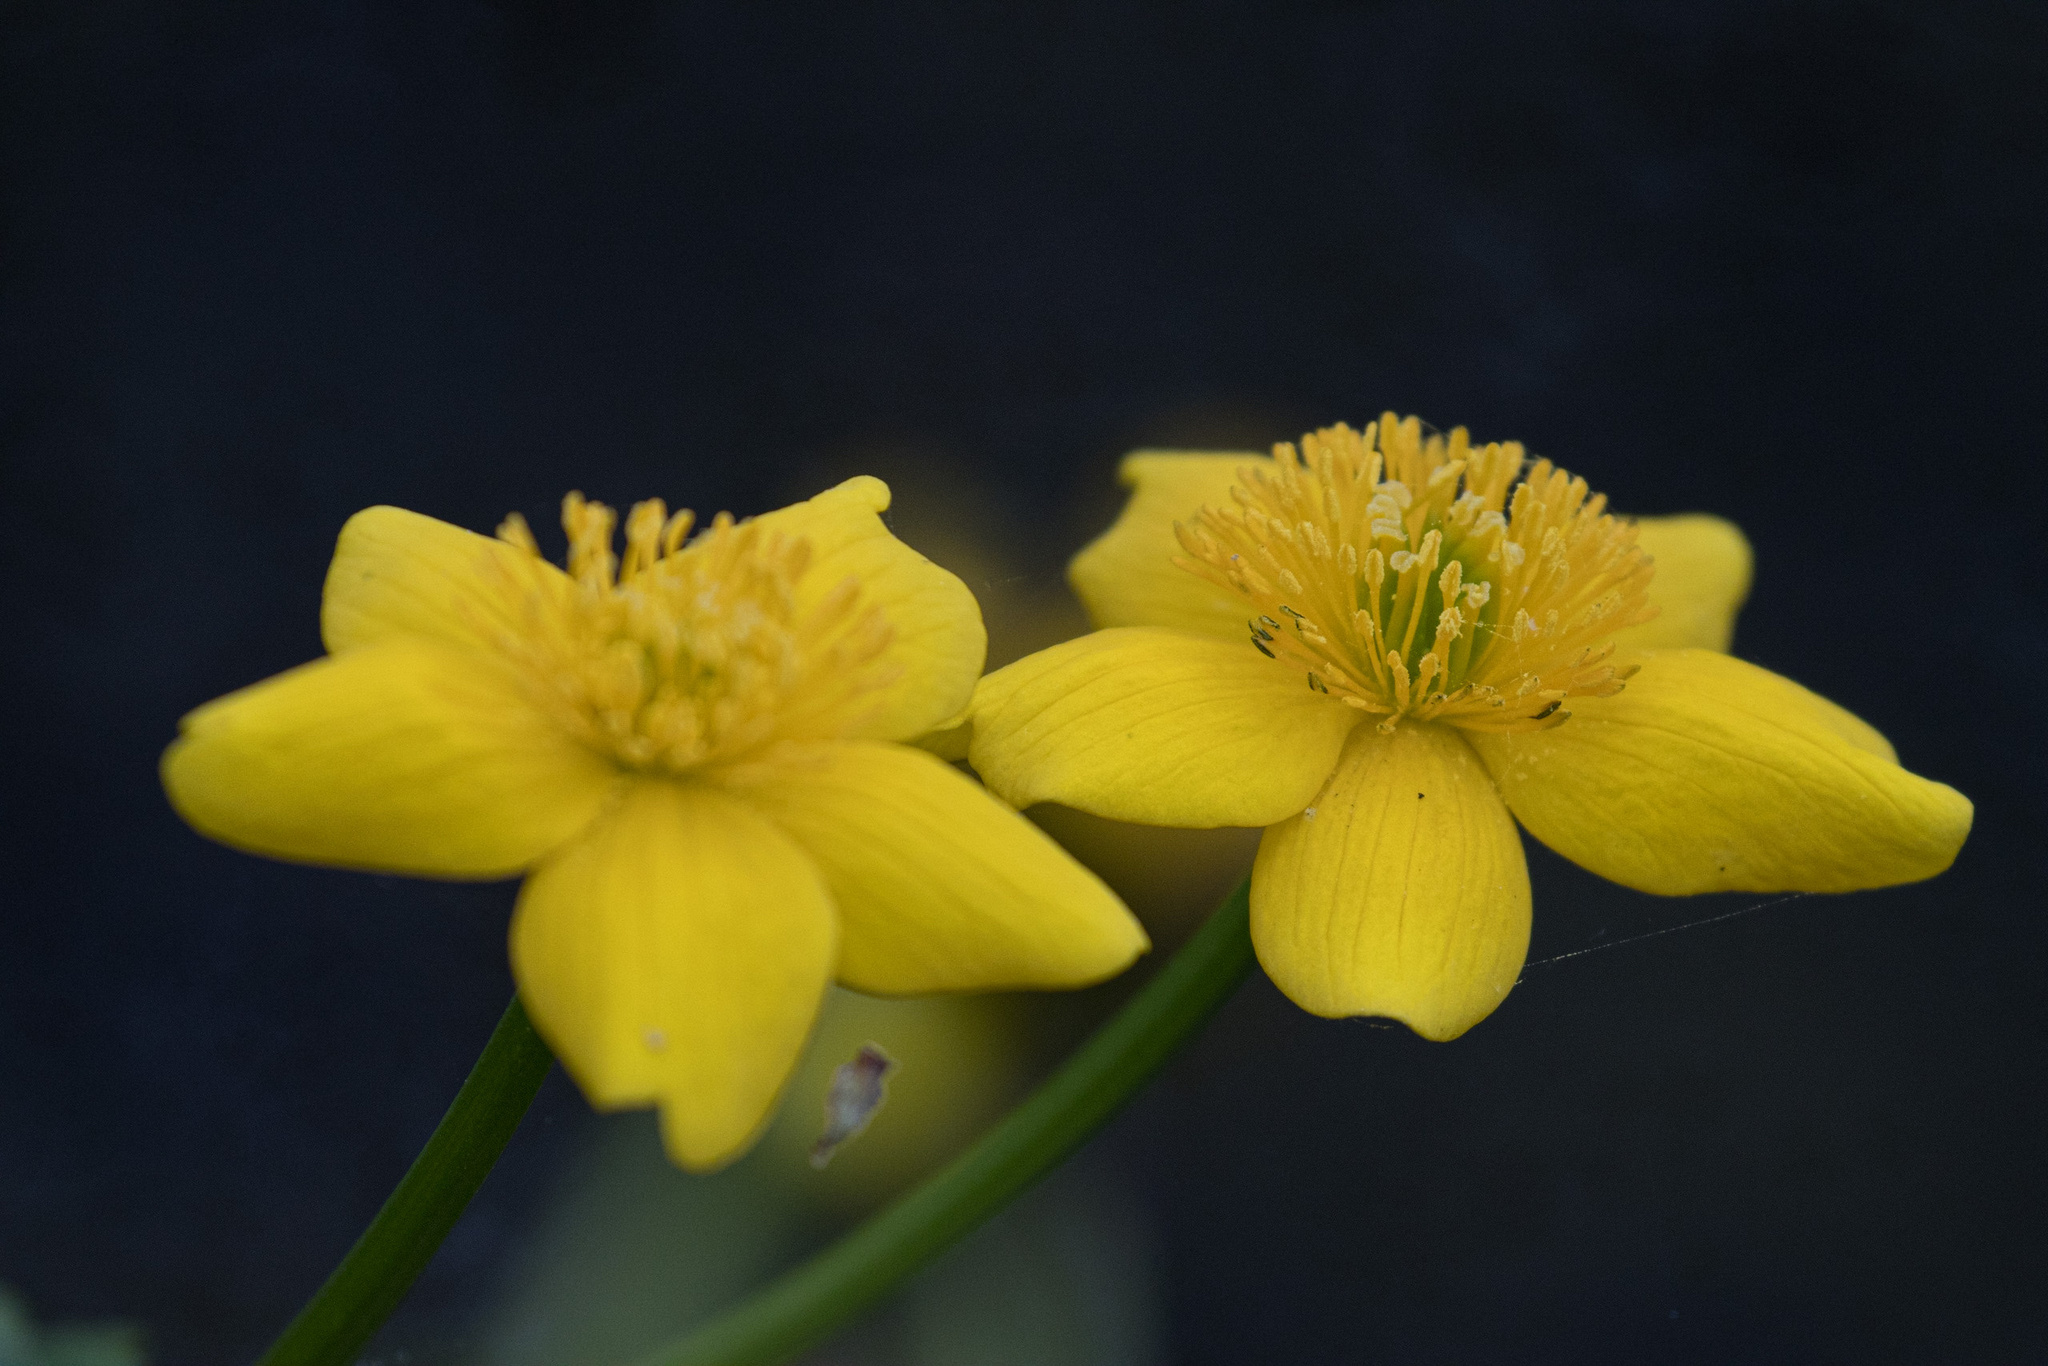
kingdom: Plantae
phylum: Tracheophyta
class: Magnoliopsida
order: Ranunculales
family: Ranunculaceae
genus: Caltha
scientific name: Caltha palustris
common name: Marsh marigold
